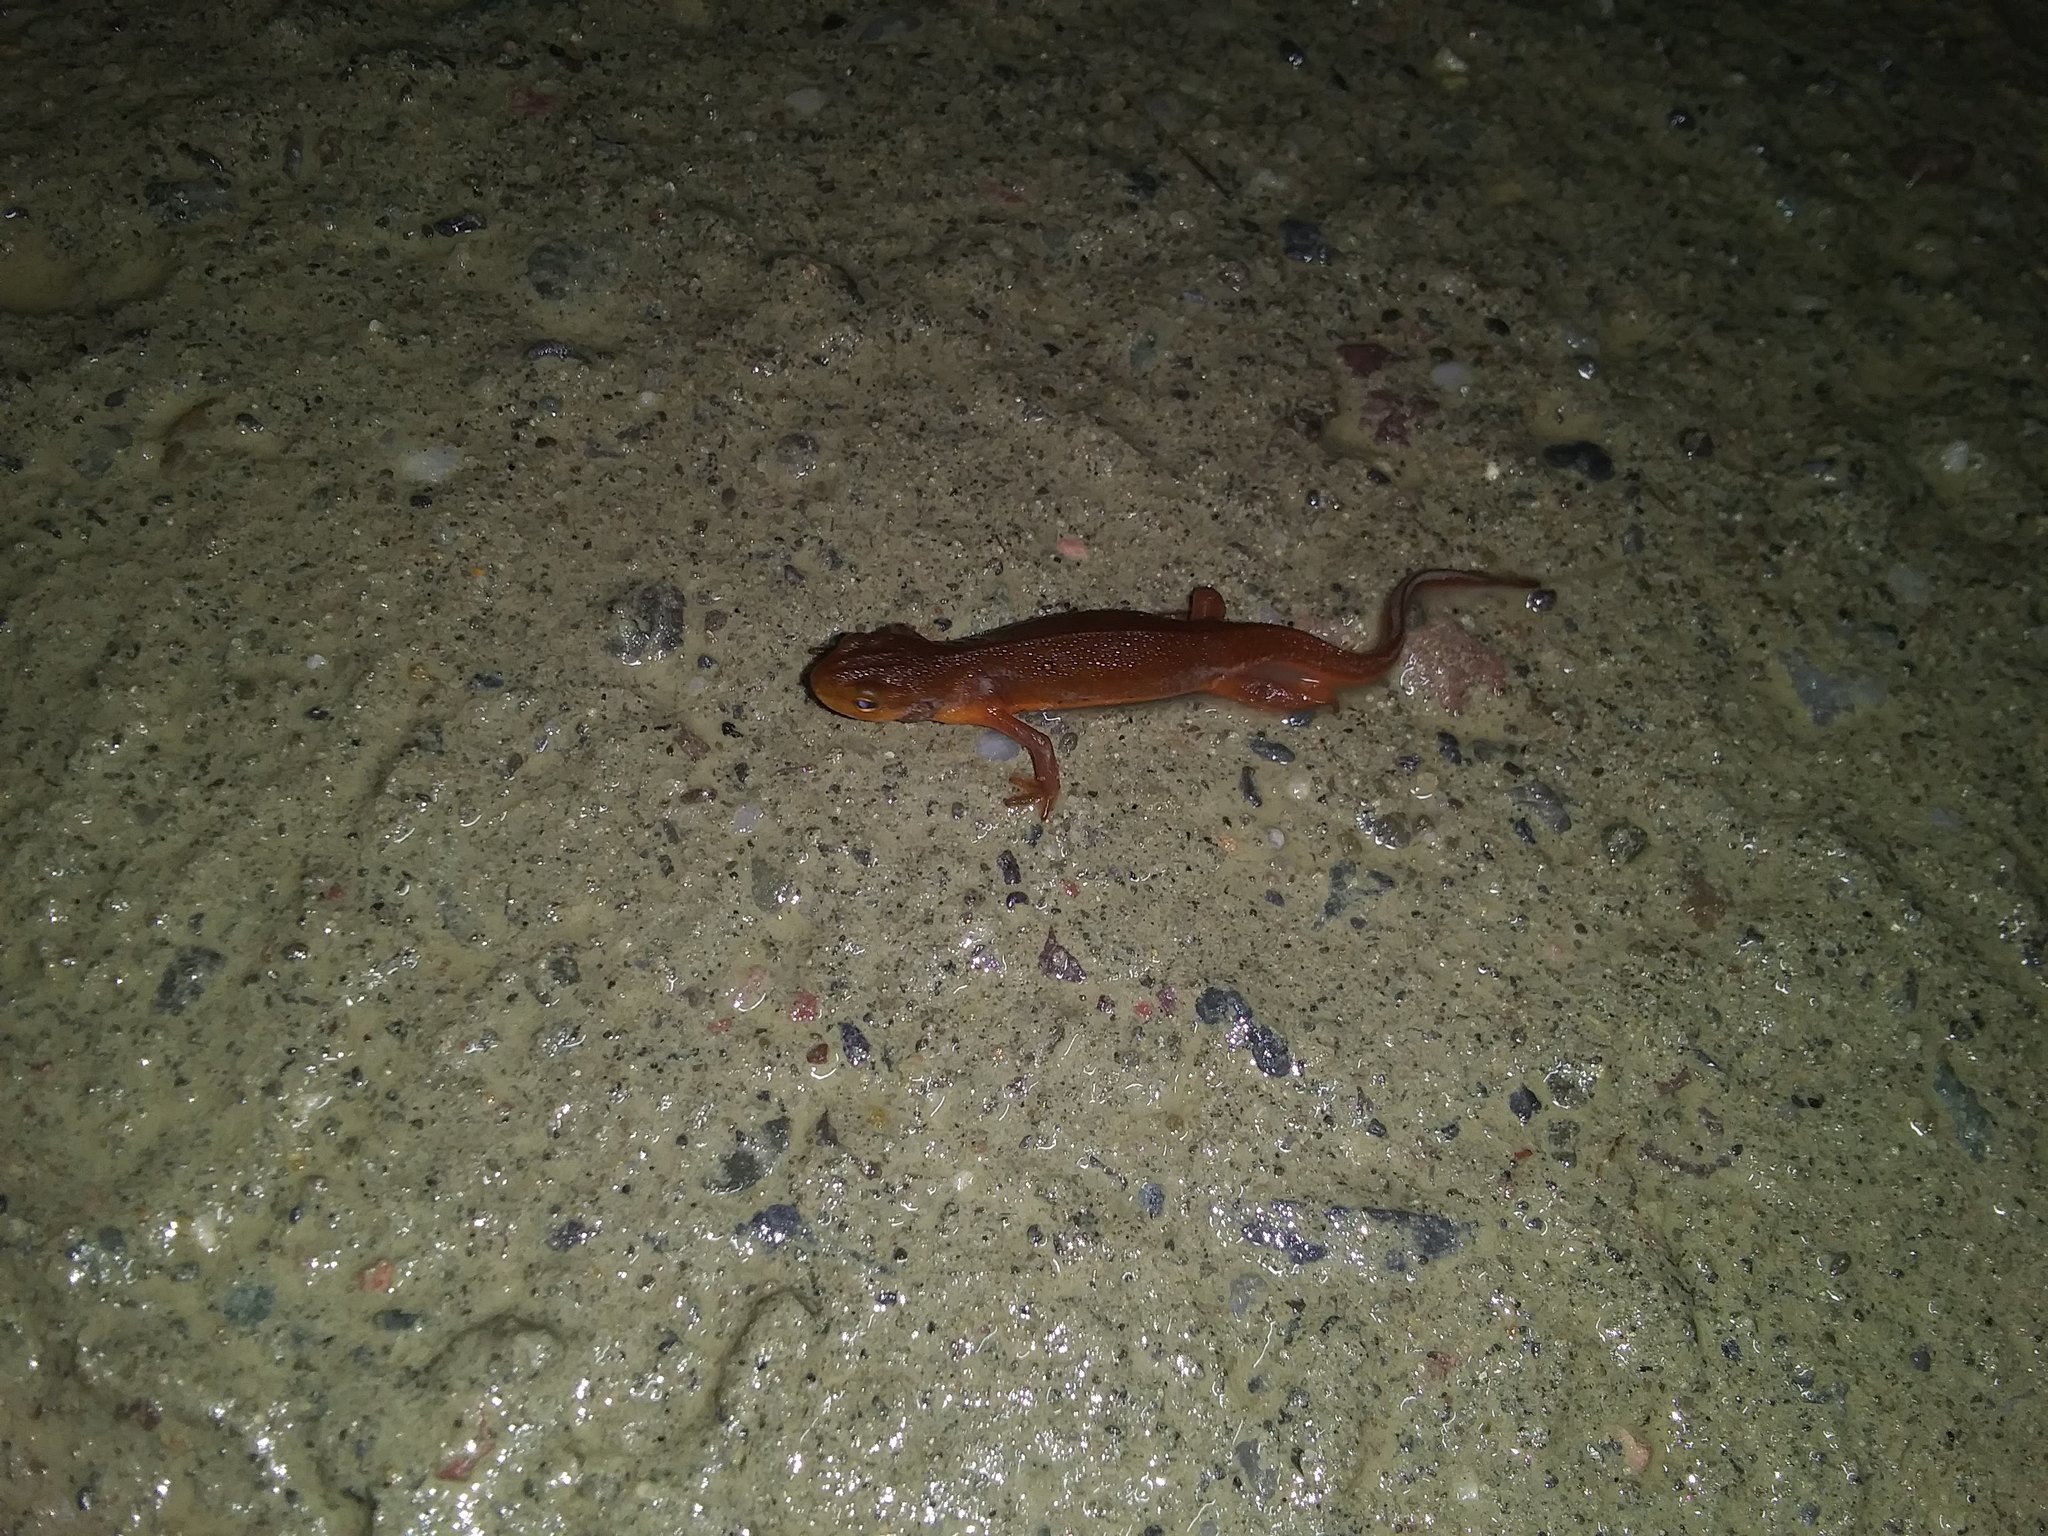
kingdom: Animalia
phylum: Chordata
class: Amphibia
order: Caudata
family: Salamandridae
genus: Notophthalmus
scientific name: Notophthalmus viridescens
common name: Eastern newt
